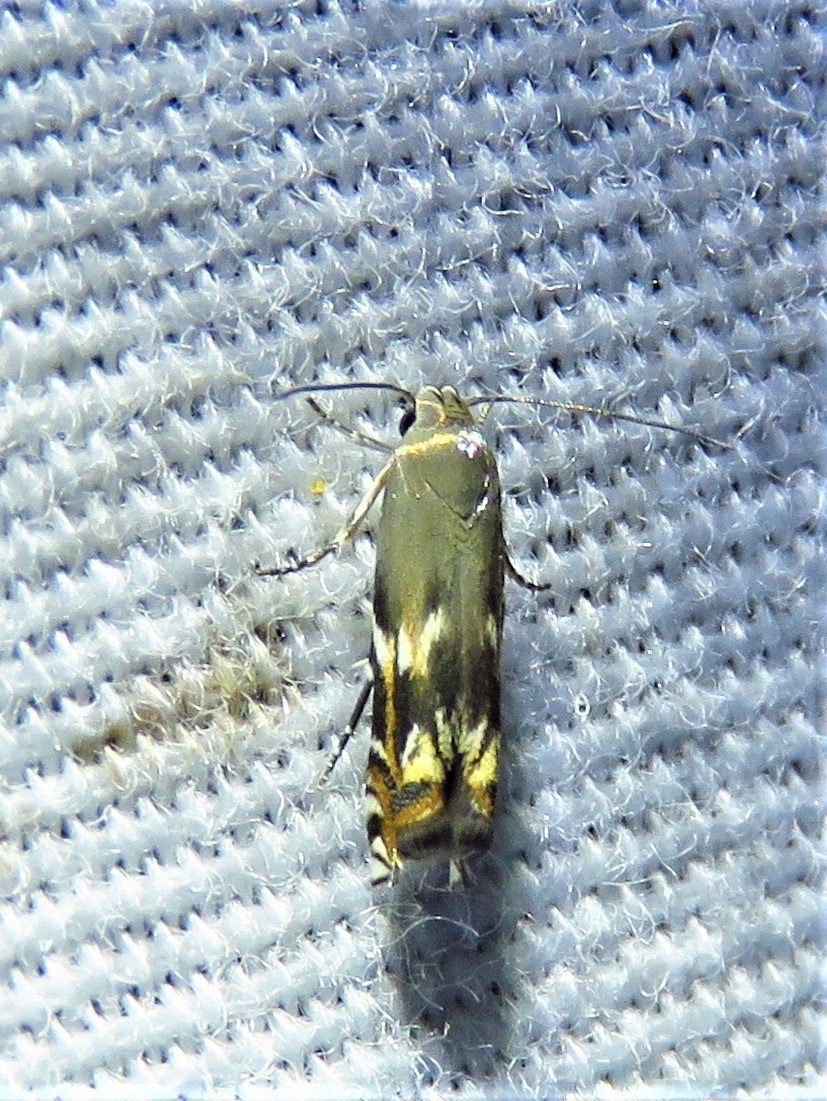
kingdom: Animalia
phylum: Arthropoda
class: Insecta
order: Lepidoptera
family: Gelechiidae
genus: Calliprora
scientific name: Calliprora sexstrigella
